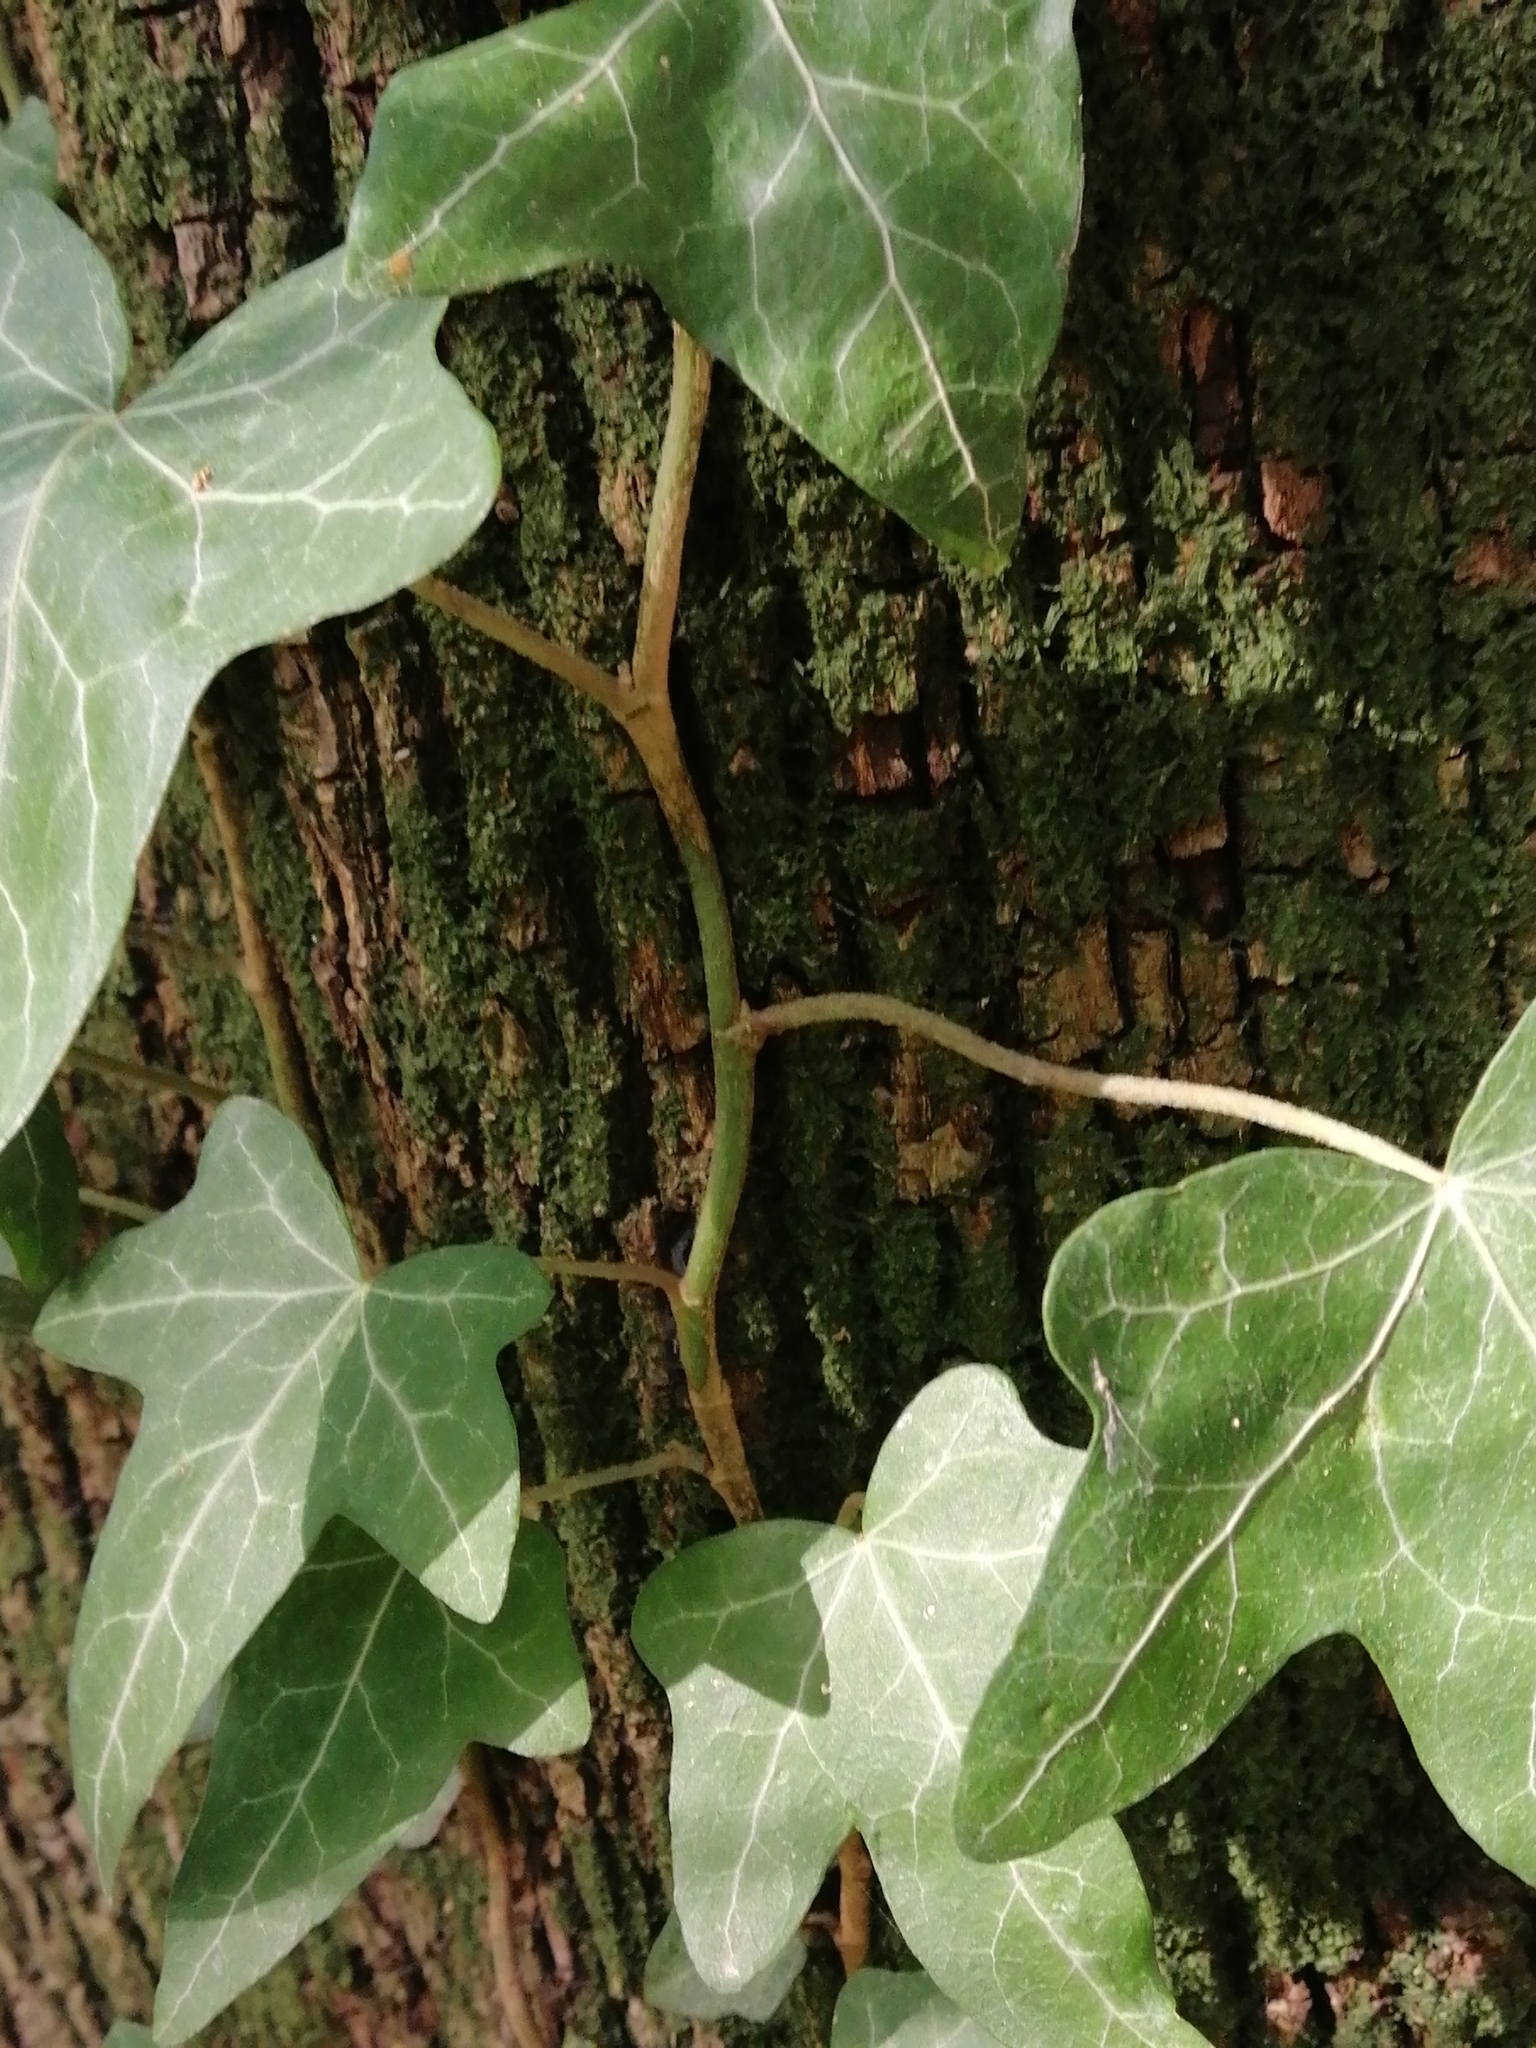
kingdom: Plantae
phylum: Tracheophyta
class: Magnoliopsida
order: Apiales
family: Araliaceae
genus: Hedera
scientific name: Hedera helix
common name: Ivy
